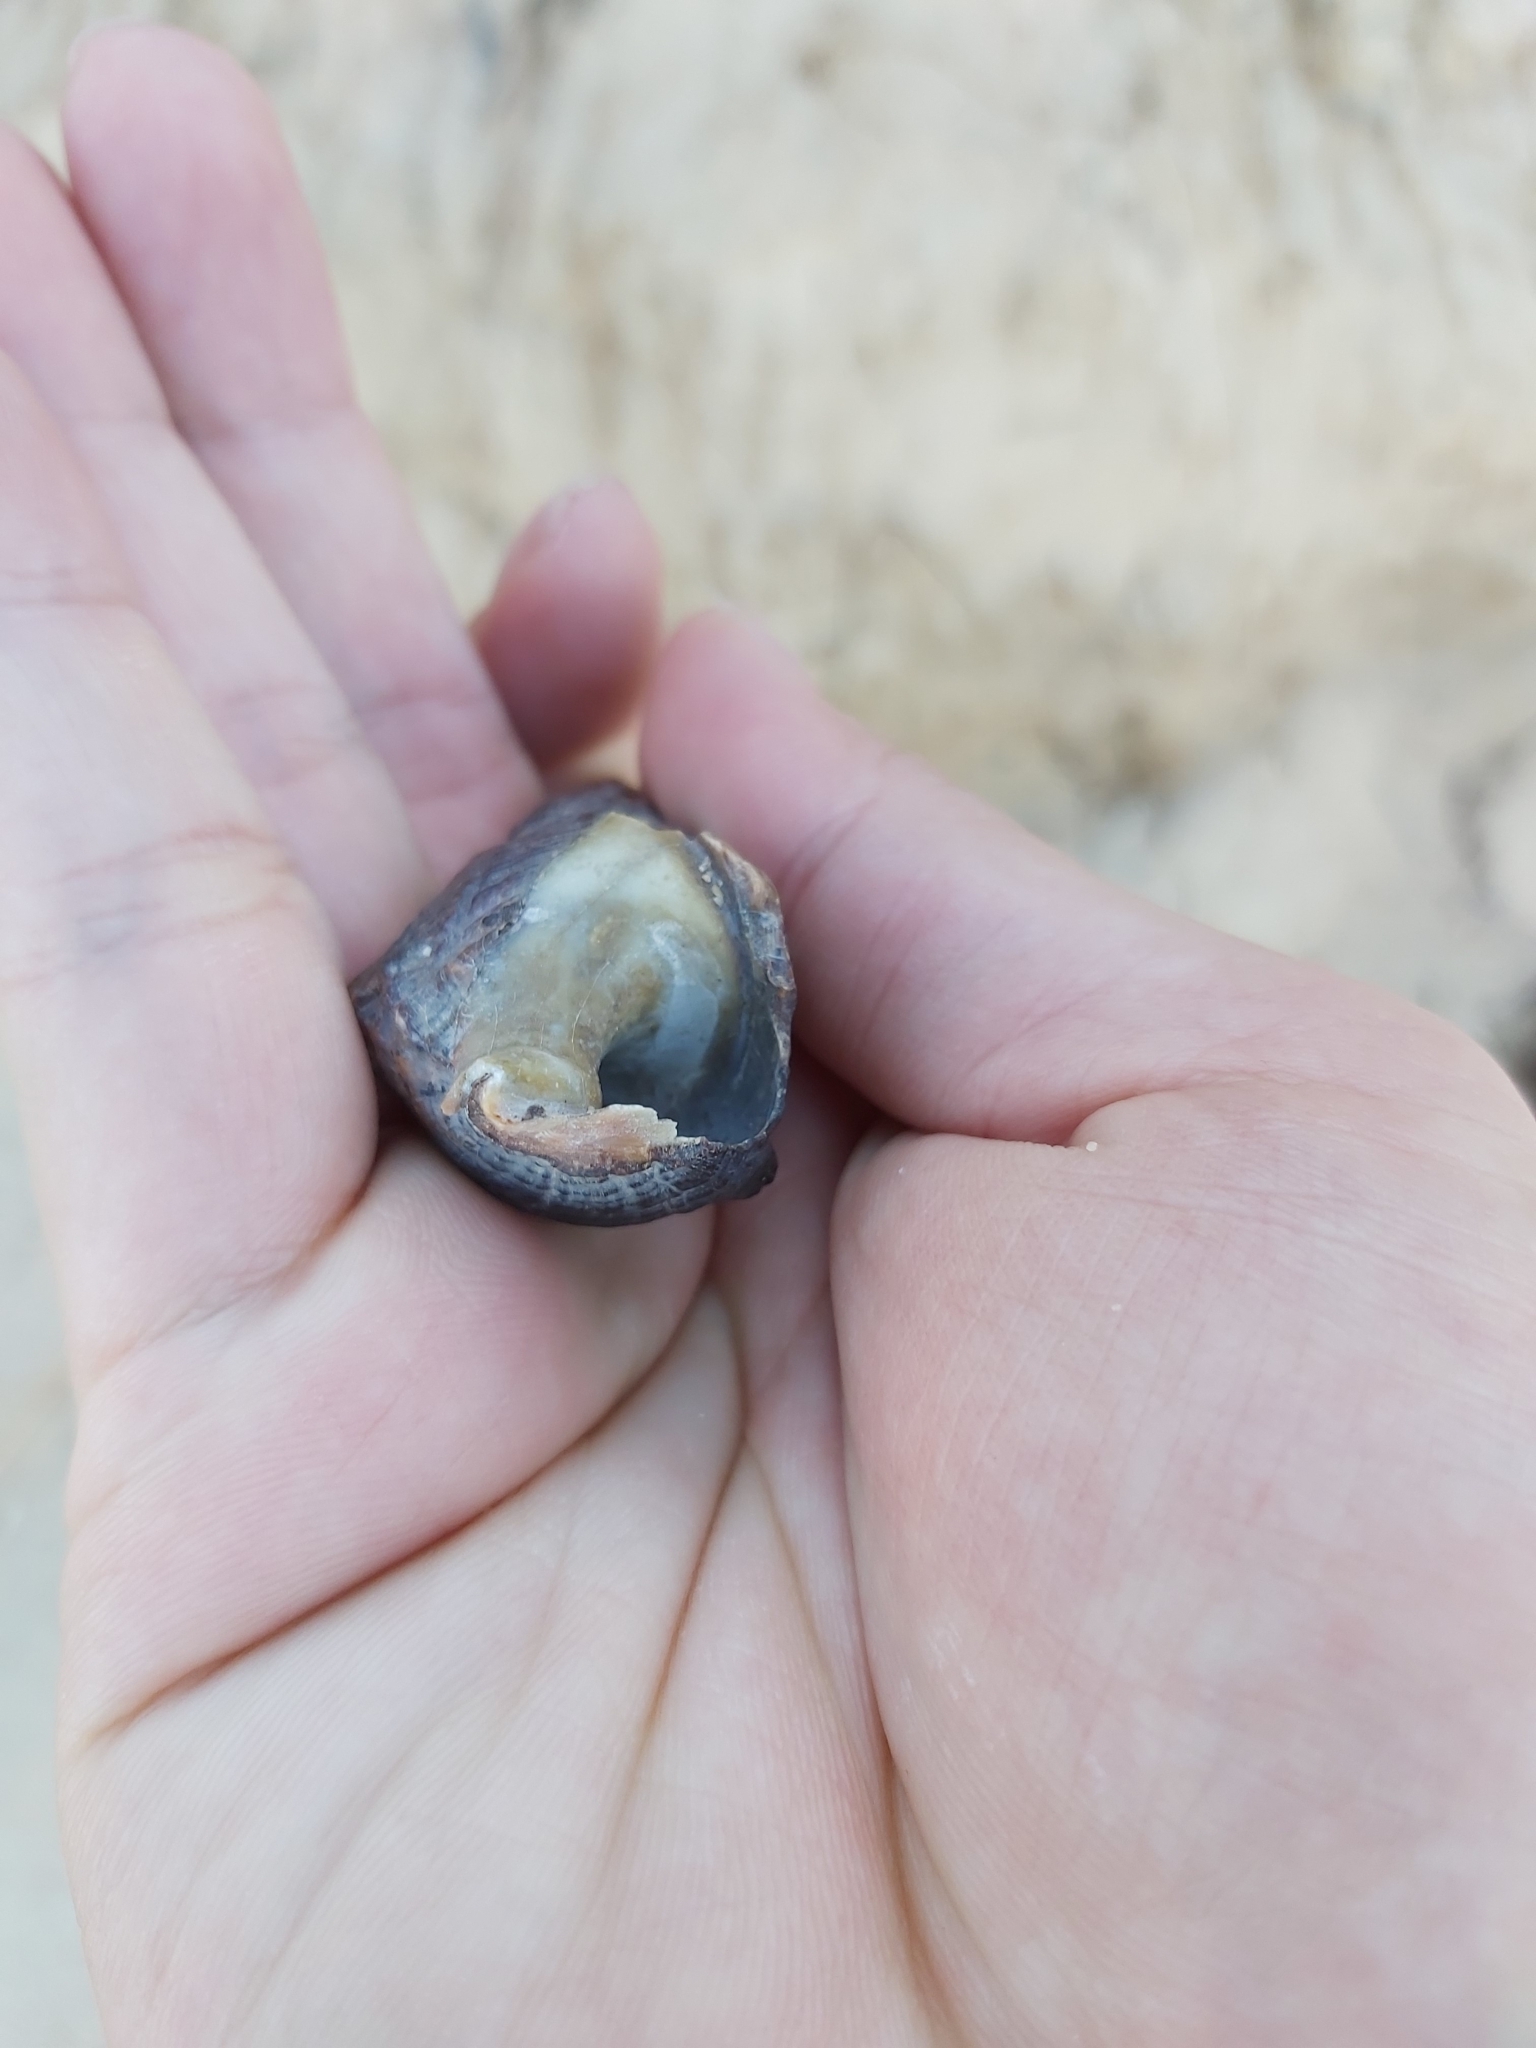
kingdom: Animalia
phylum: Mollusca
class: Gastropoda
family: Batillariidae
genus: Pyrazus
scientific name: Pyrazus ebeninus
